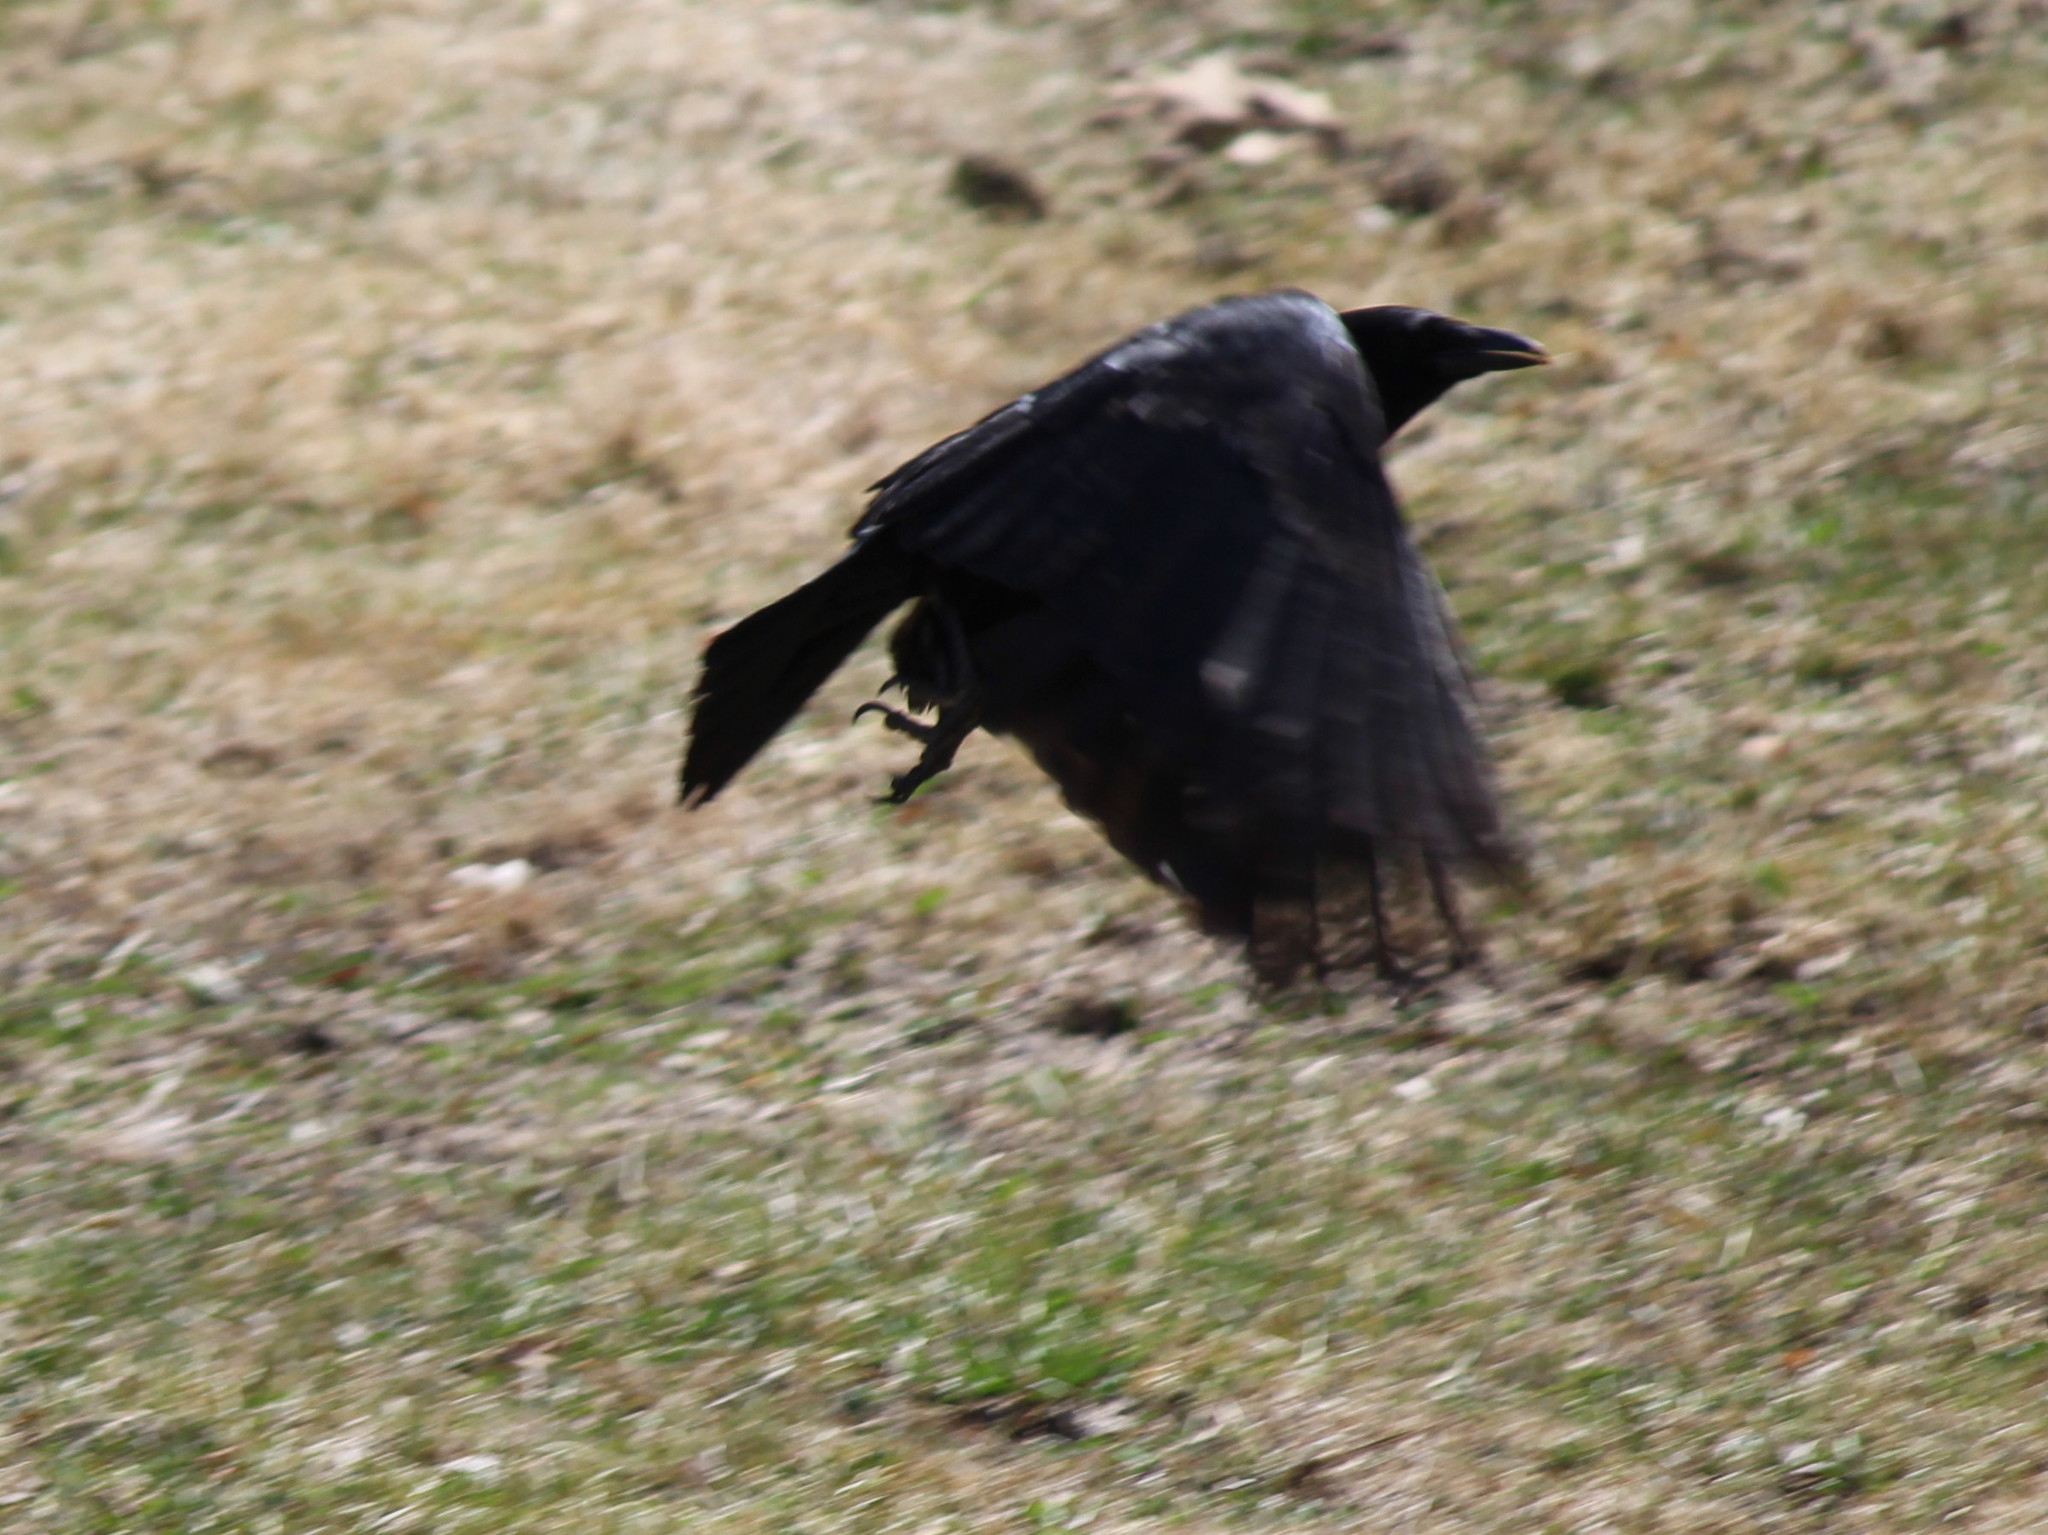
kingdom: Animalia
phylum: Chordata
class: Aves
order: Passeriformes
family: Corvidae
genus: Corvus
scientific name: Corvus brachyrhynchos
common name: American crow
